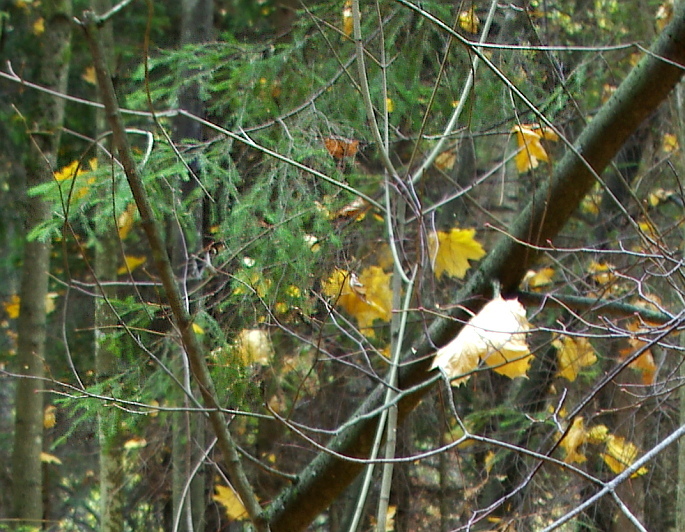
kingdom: Plantae
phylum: Tracheophyta
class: Pinopsida
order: Pinales
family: Pinaceae
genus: Picea
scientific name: Picea abies
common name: Norway spruce
